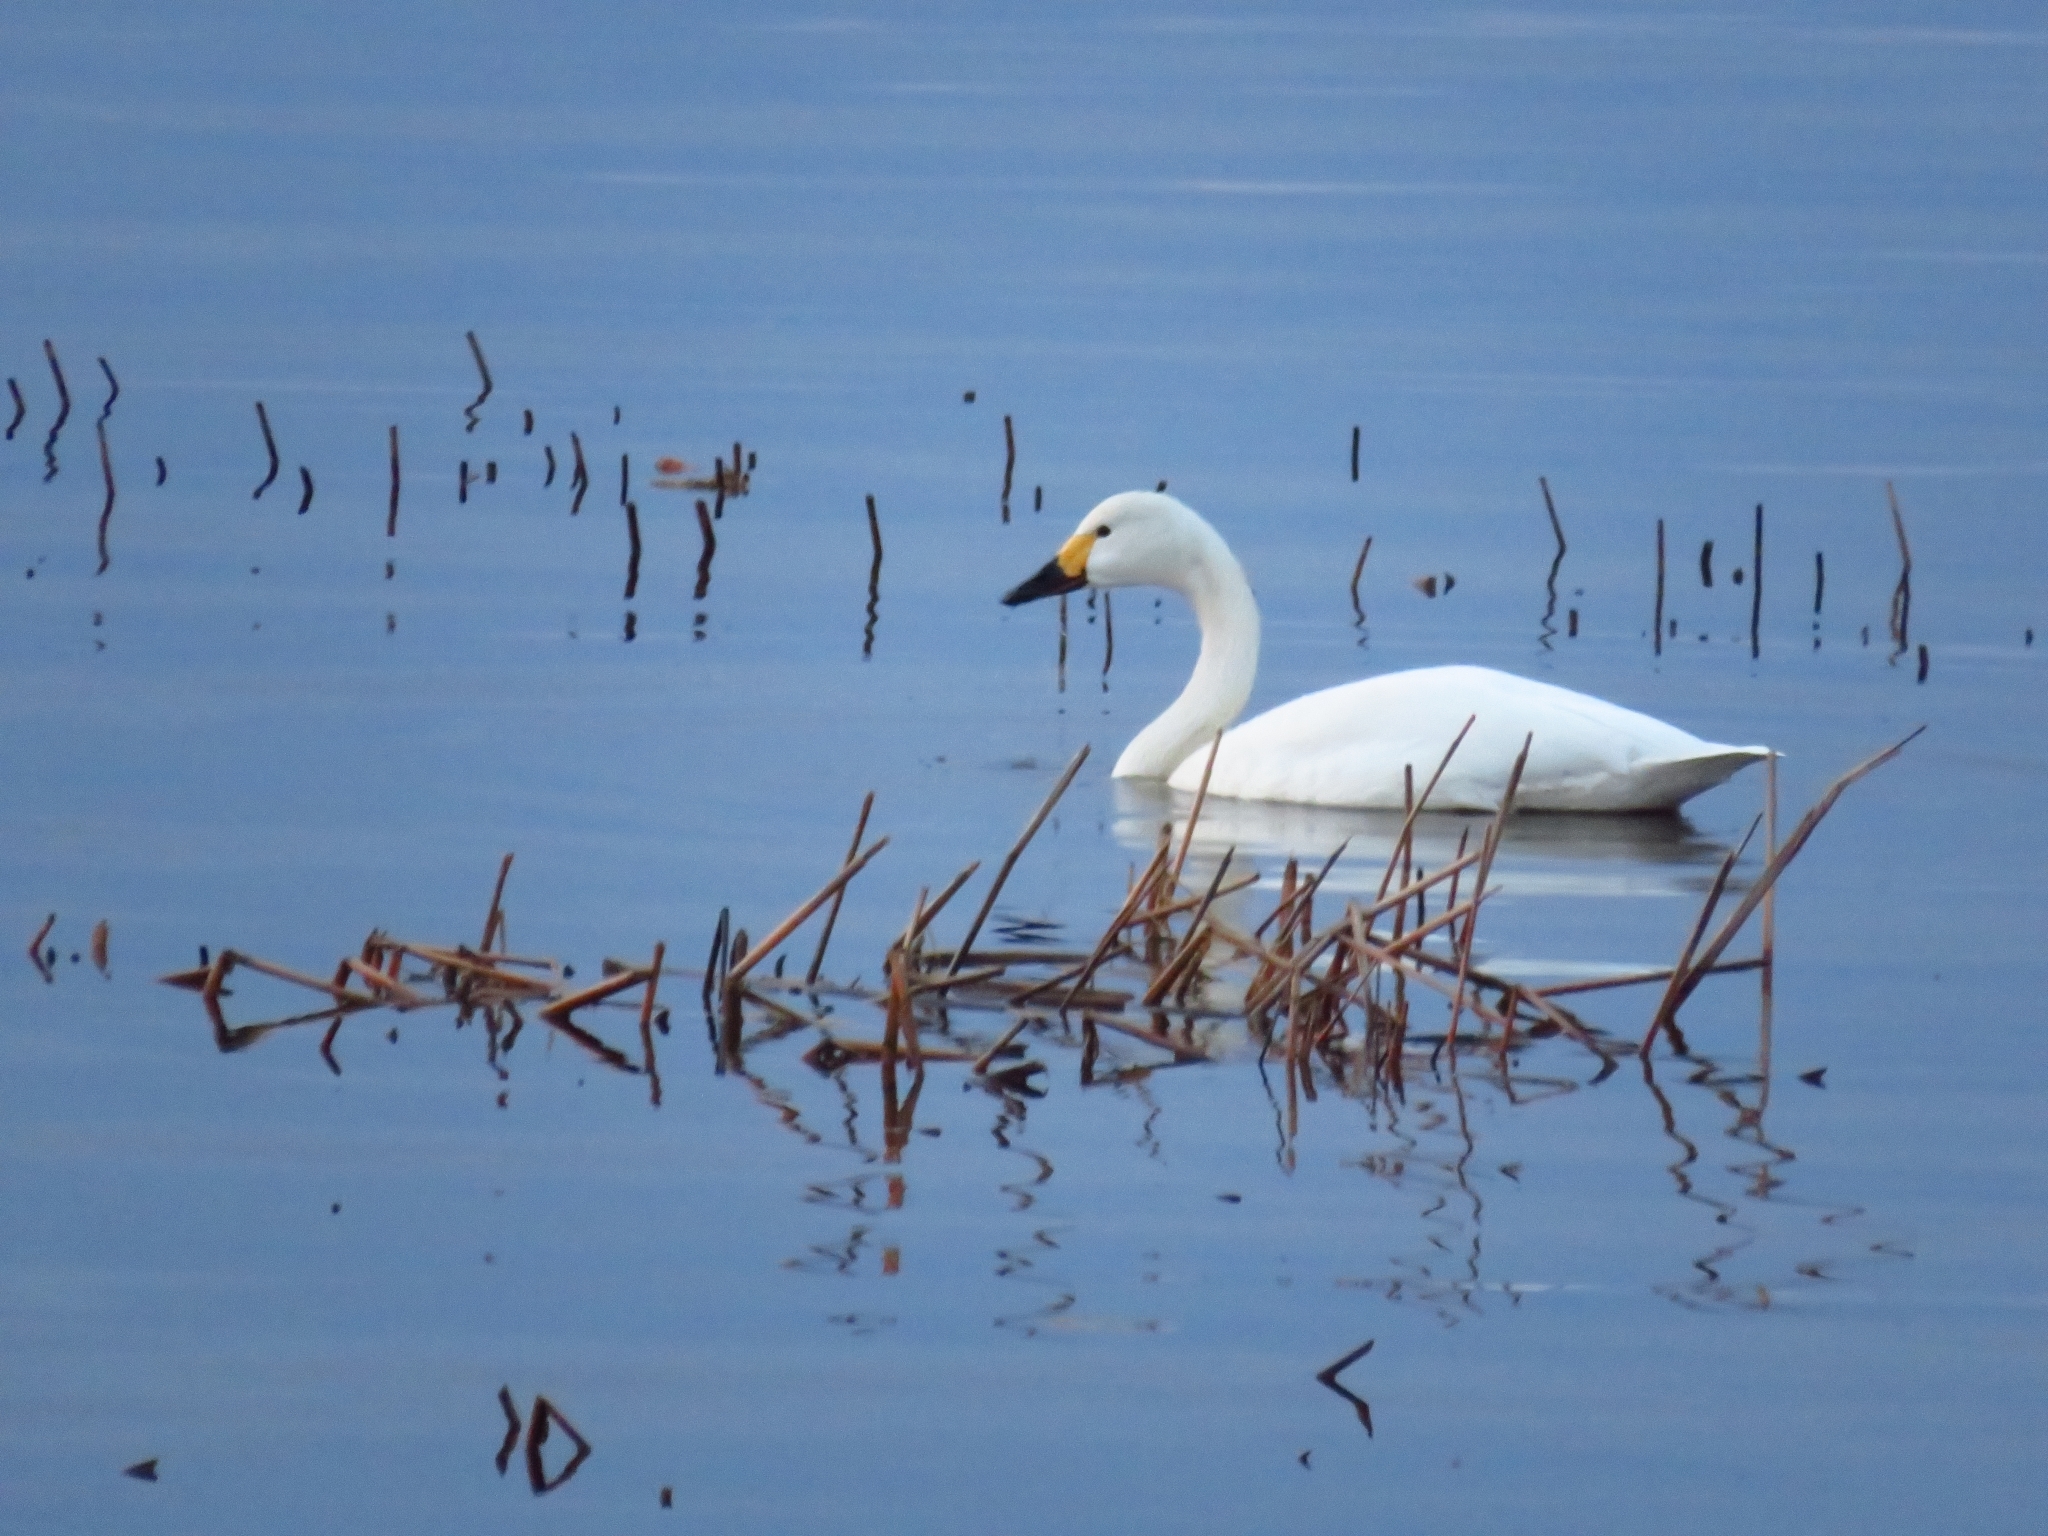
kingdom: Animalia
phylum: Chordata
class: Aves
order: Anseriformes
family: Anatidae
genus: Cygnus
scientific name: Cygnus columbianus
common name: Tundra swan
